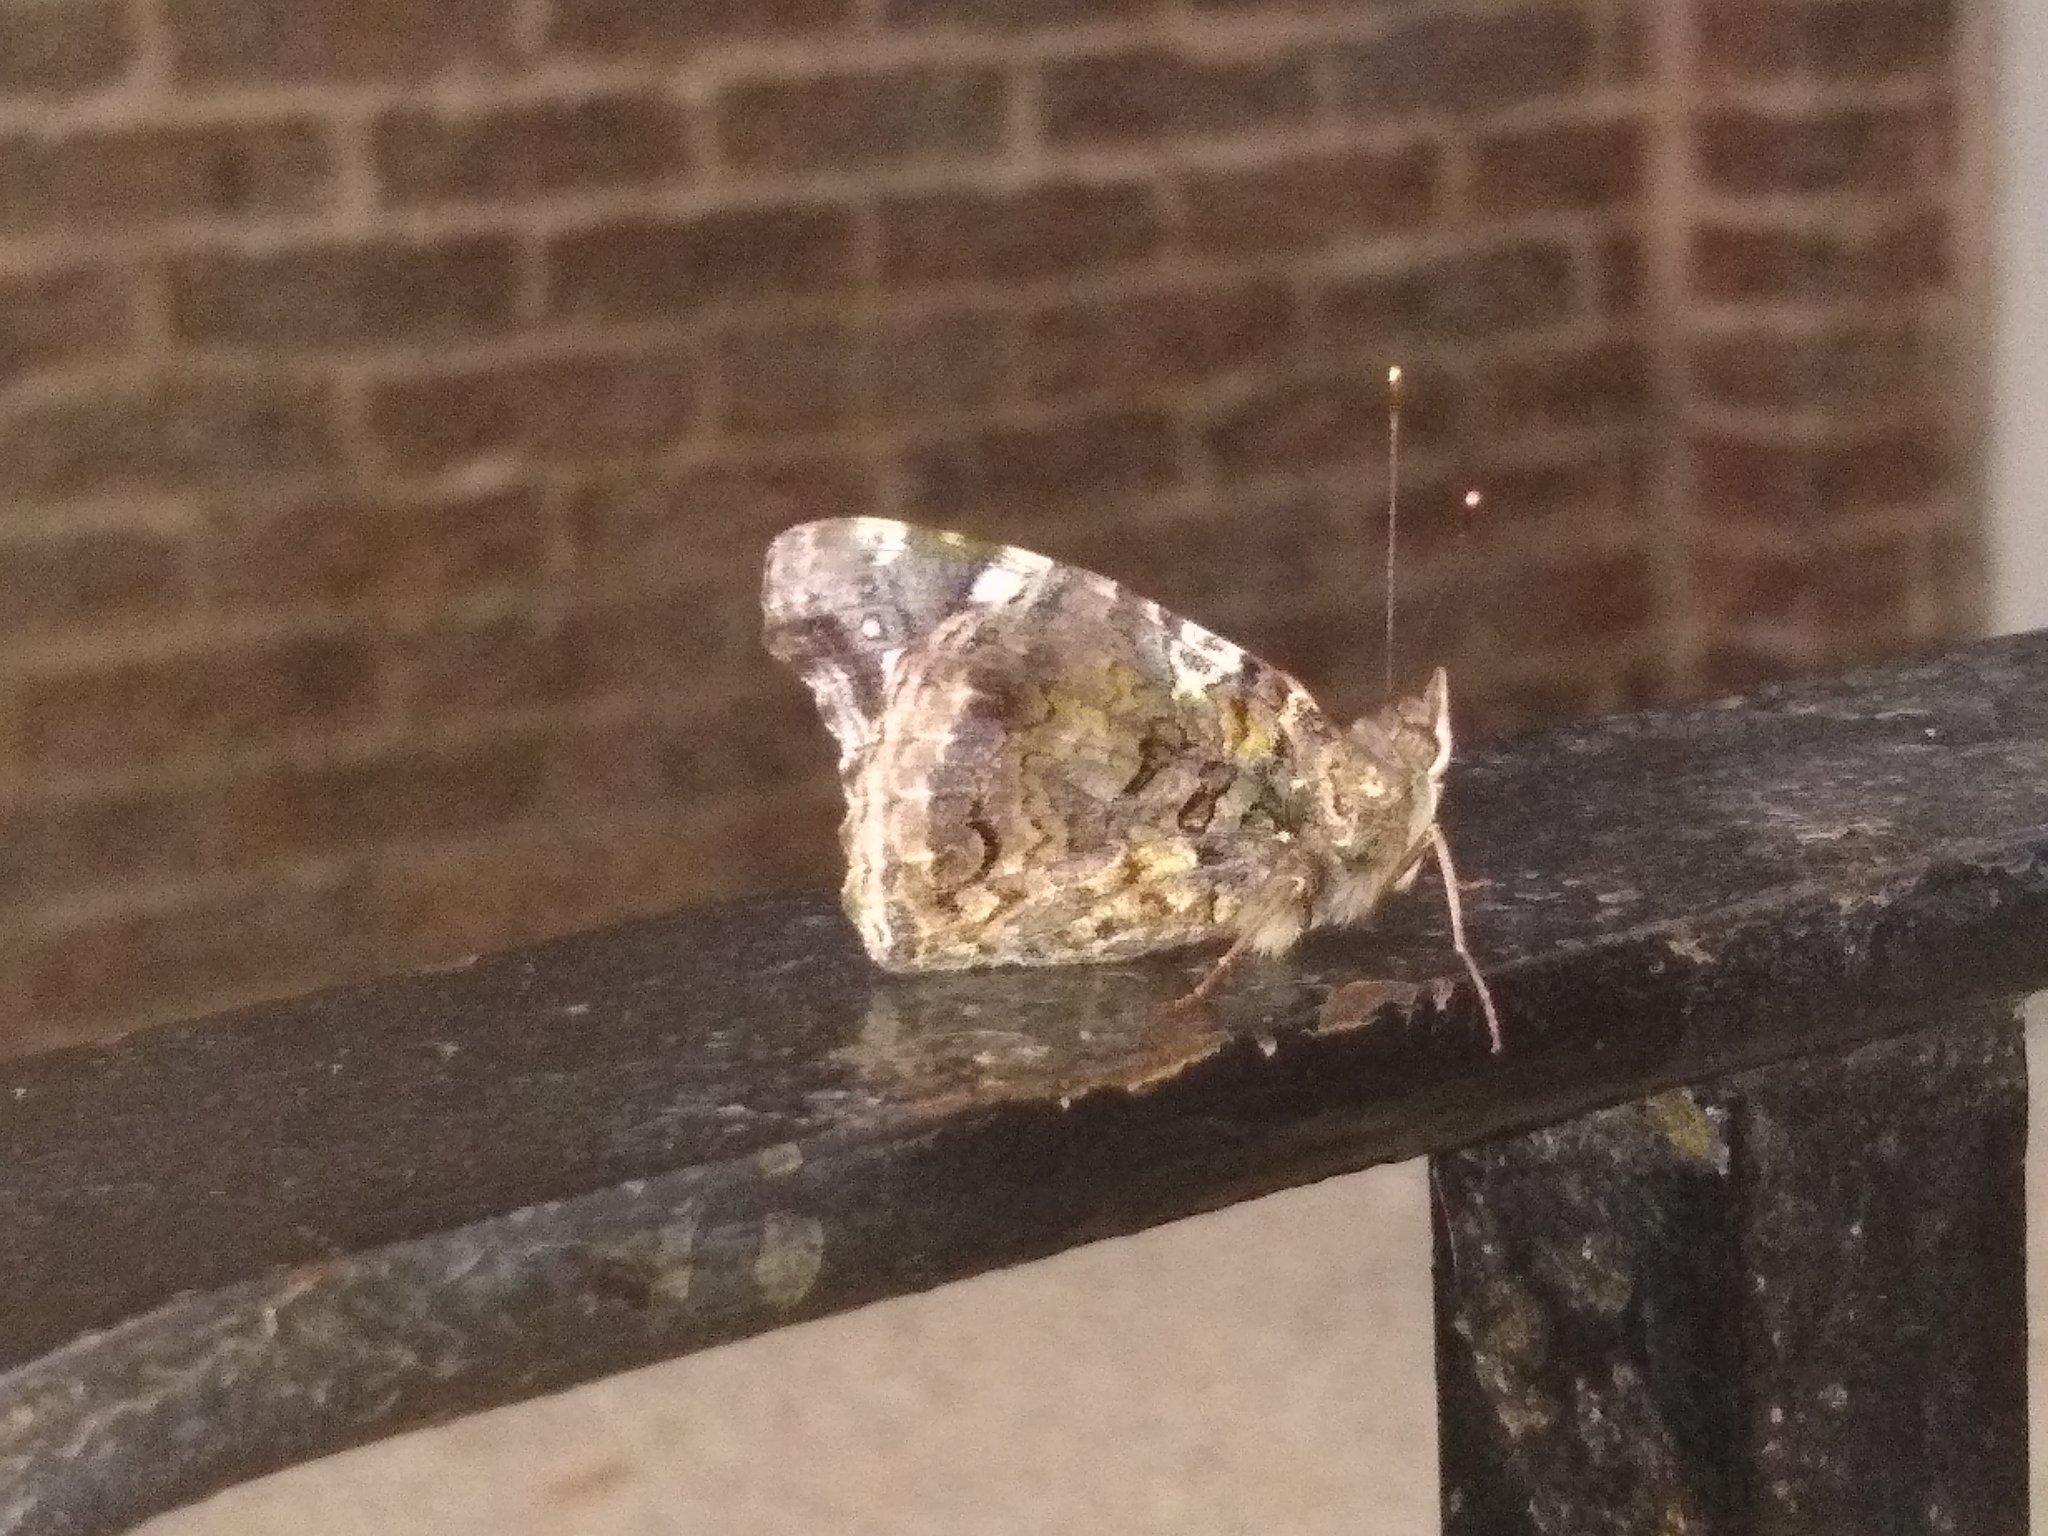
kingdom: Animalia
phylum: Arthropoda
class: Insecta
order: Lepidoptera
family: Nymphalidae
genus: Vanessa
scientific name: Vanessa atalanta
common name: Red admiral
